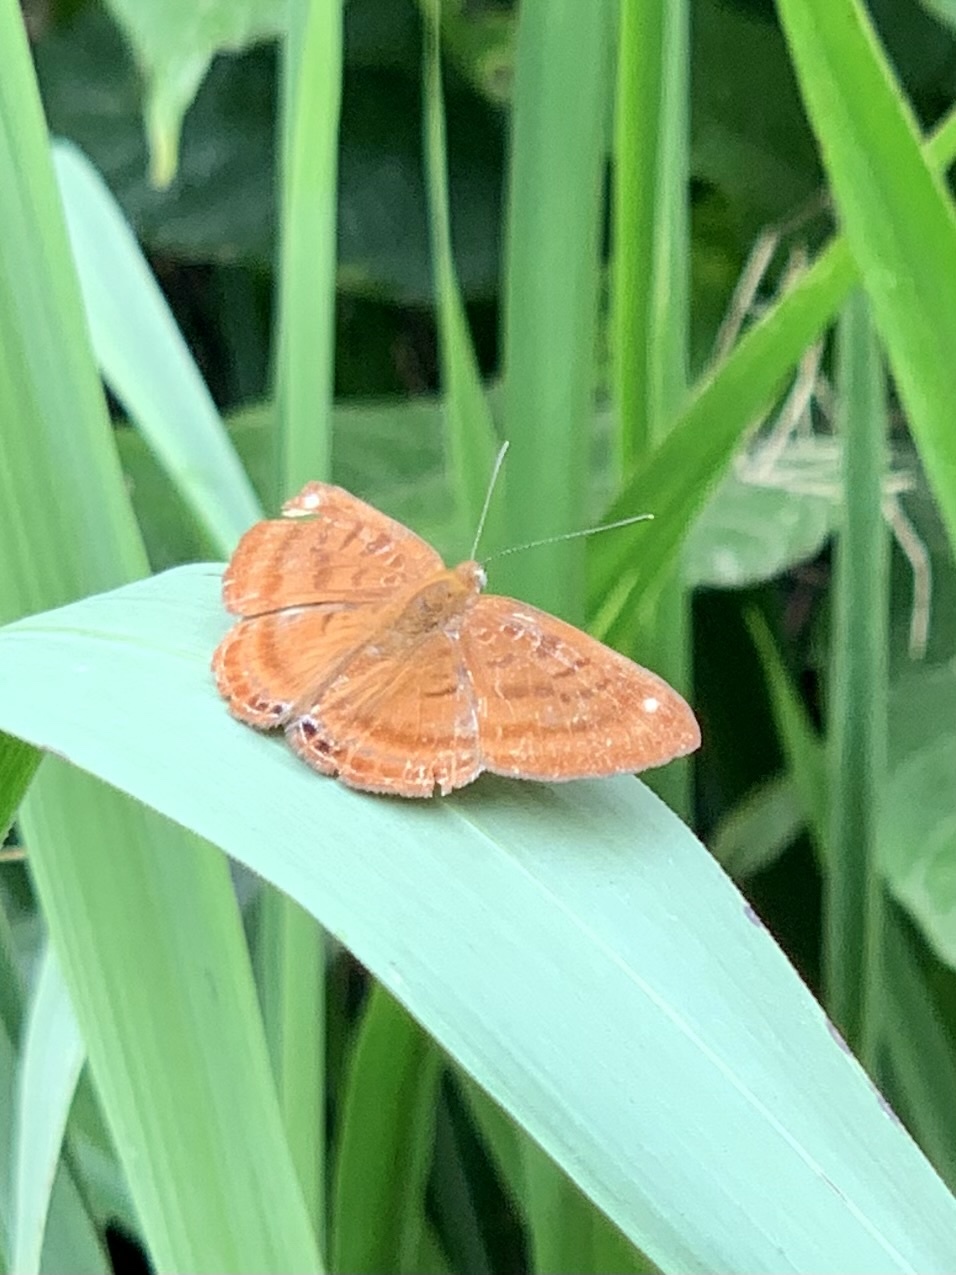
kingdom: Animalia
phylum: Arthropoda
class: Insecta
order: Lepidoptera
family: Riodinidae
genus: Synargis
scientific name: Synargis mycone
